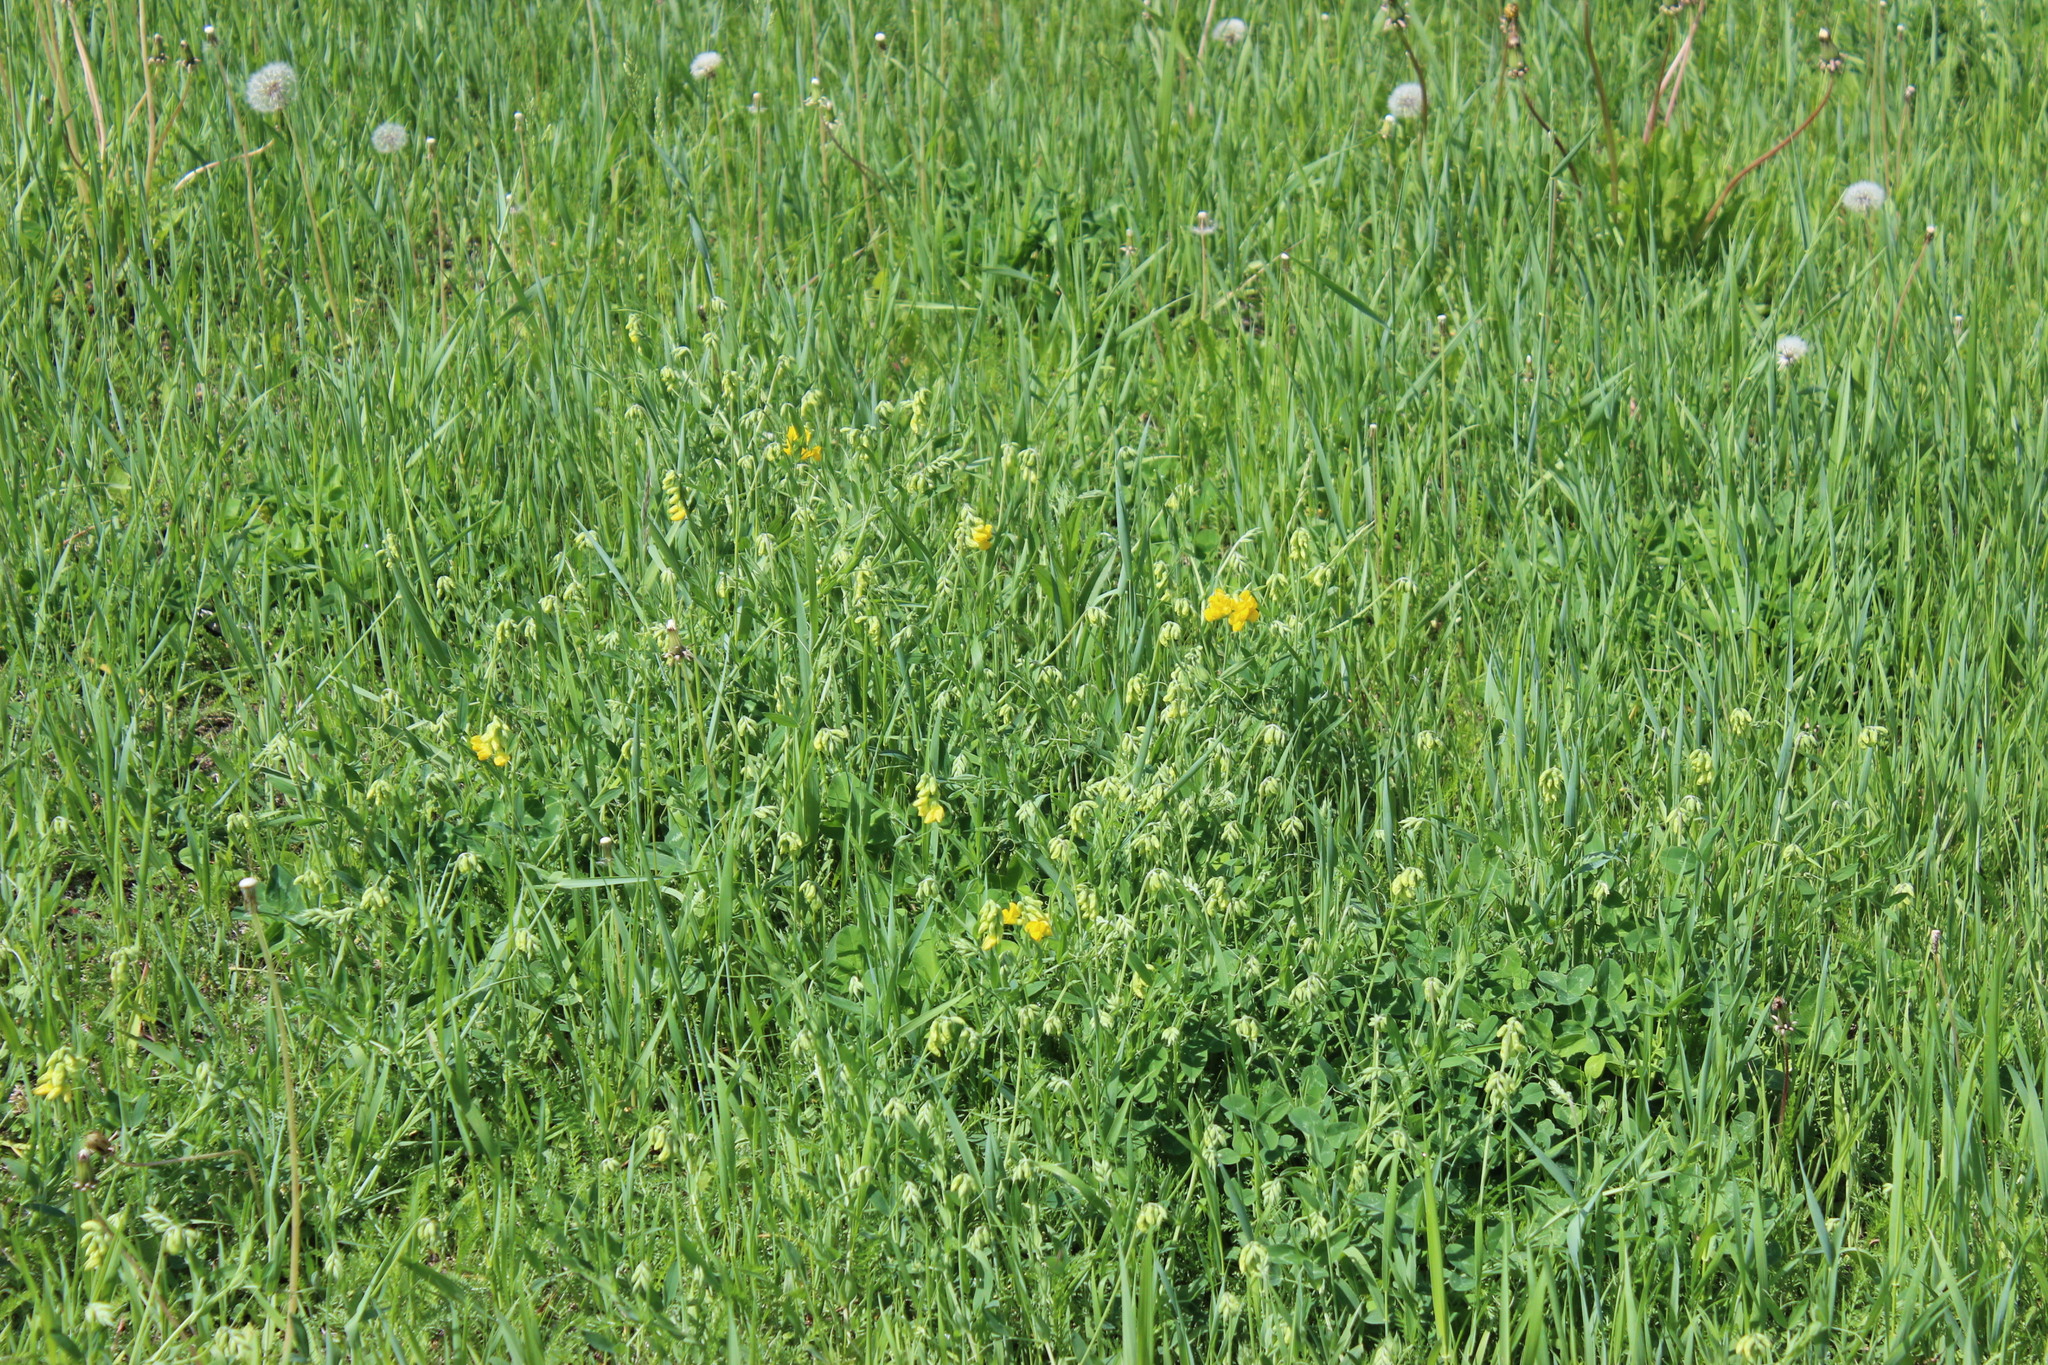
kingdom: Plantae
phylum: Tracheophyta
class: Magnoliopsida
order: Fabales
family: Fabaceae
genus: Lathyrus
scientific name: Lathyrus pratensis
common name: Meadow vetchling
